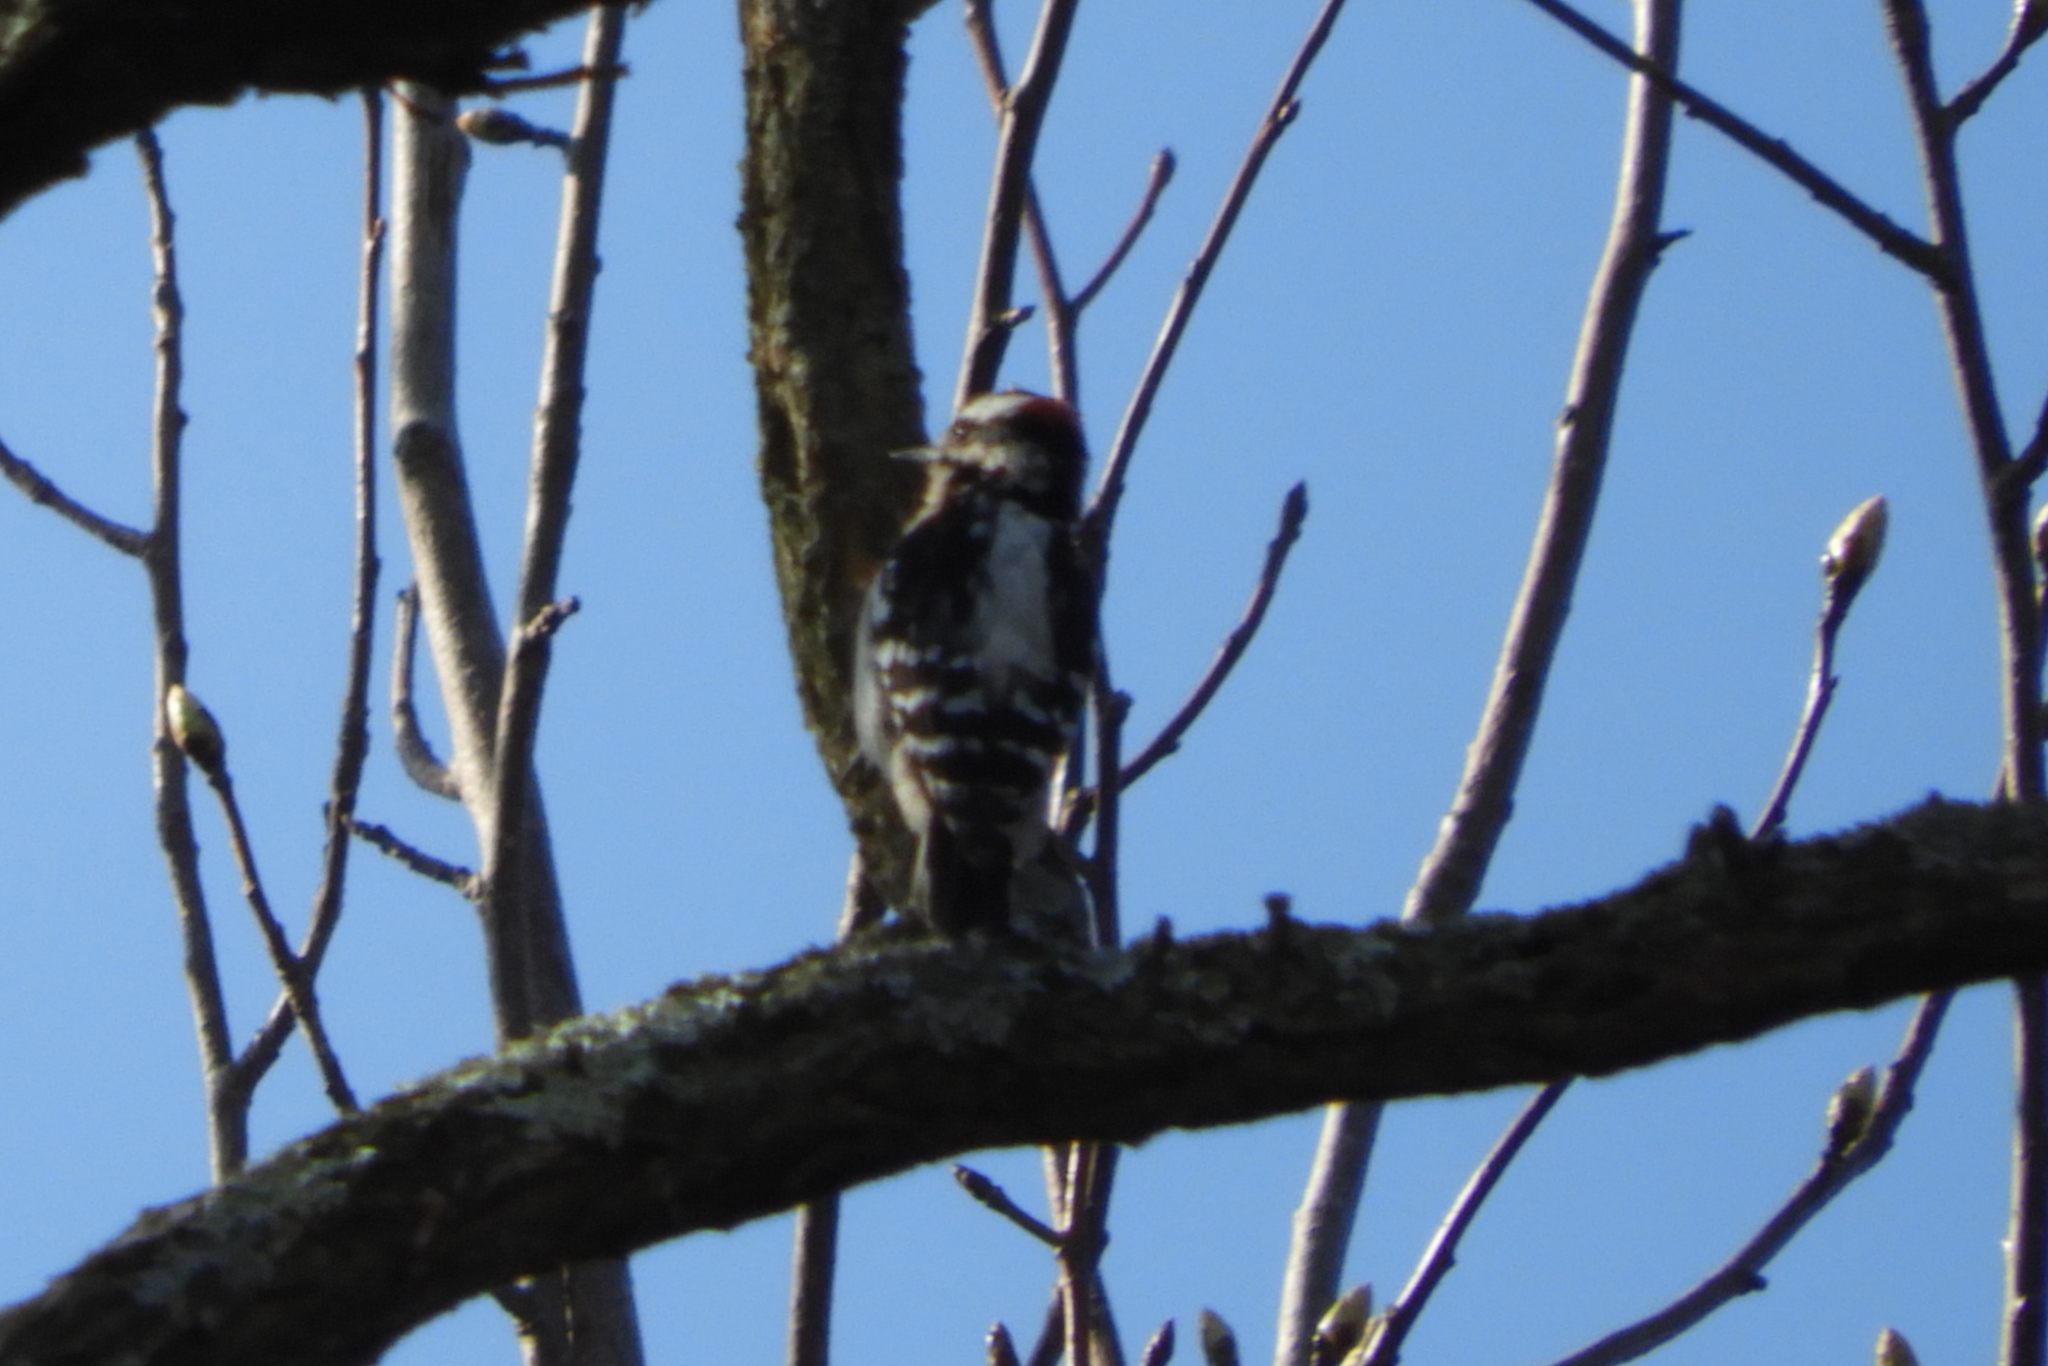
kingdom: Animalia
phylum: Chordata
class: Aves
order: Piciformes
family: Picidae
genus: Dryobates
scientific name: Dryobates pubescens
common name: Downy woodpecker
